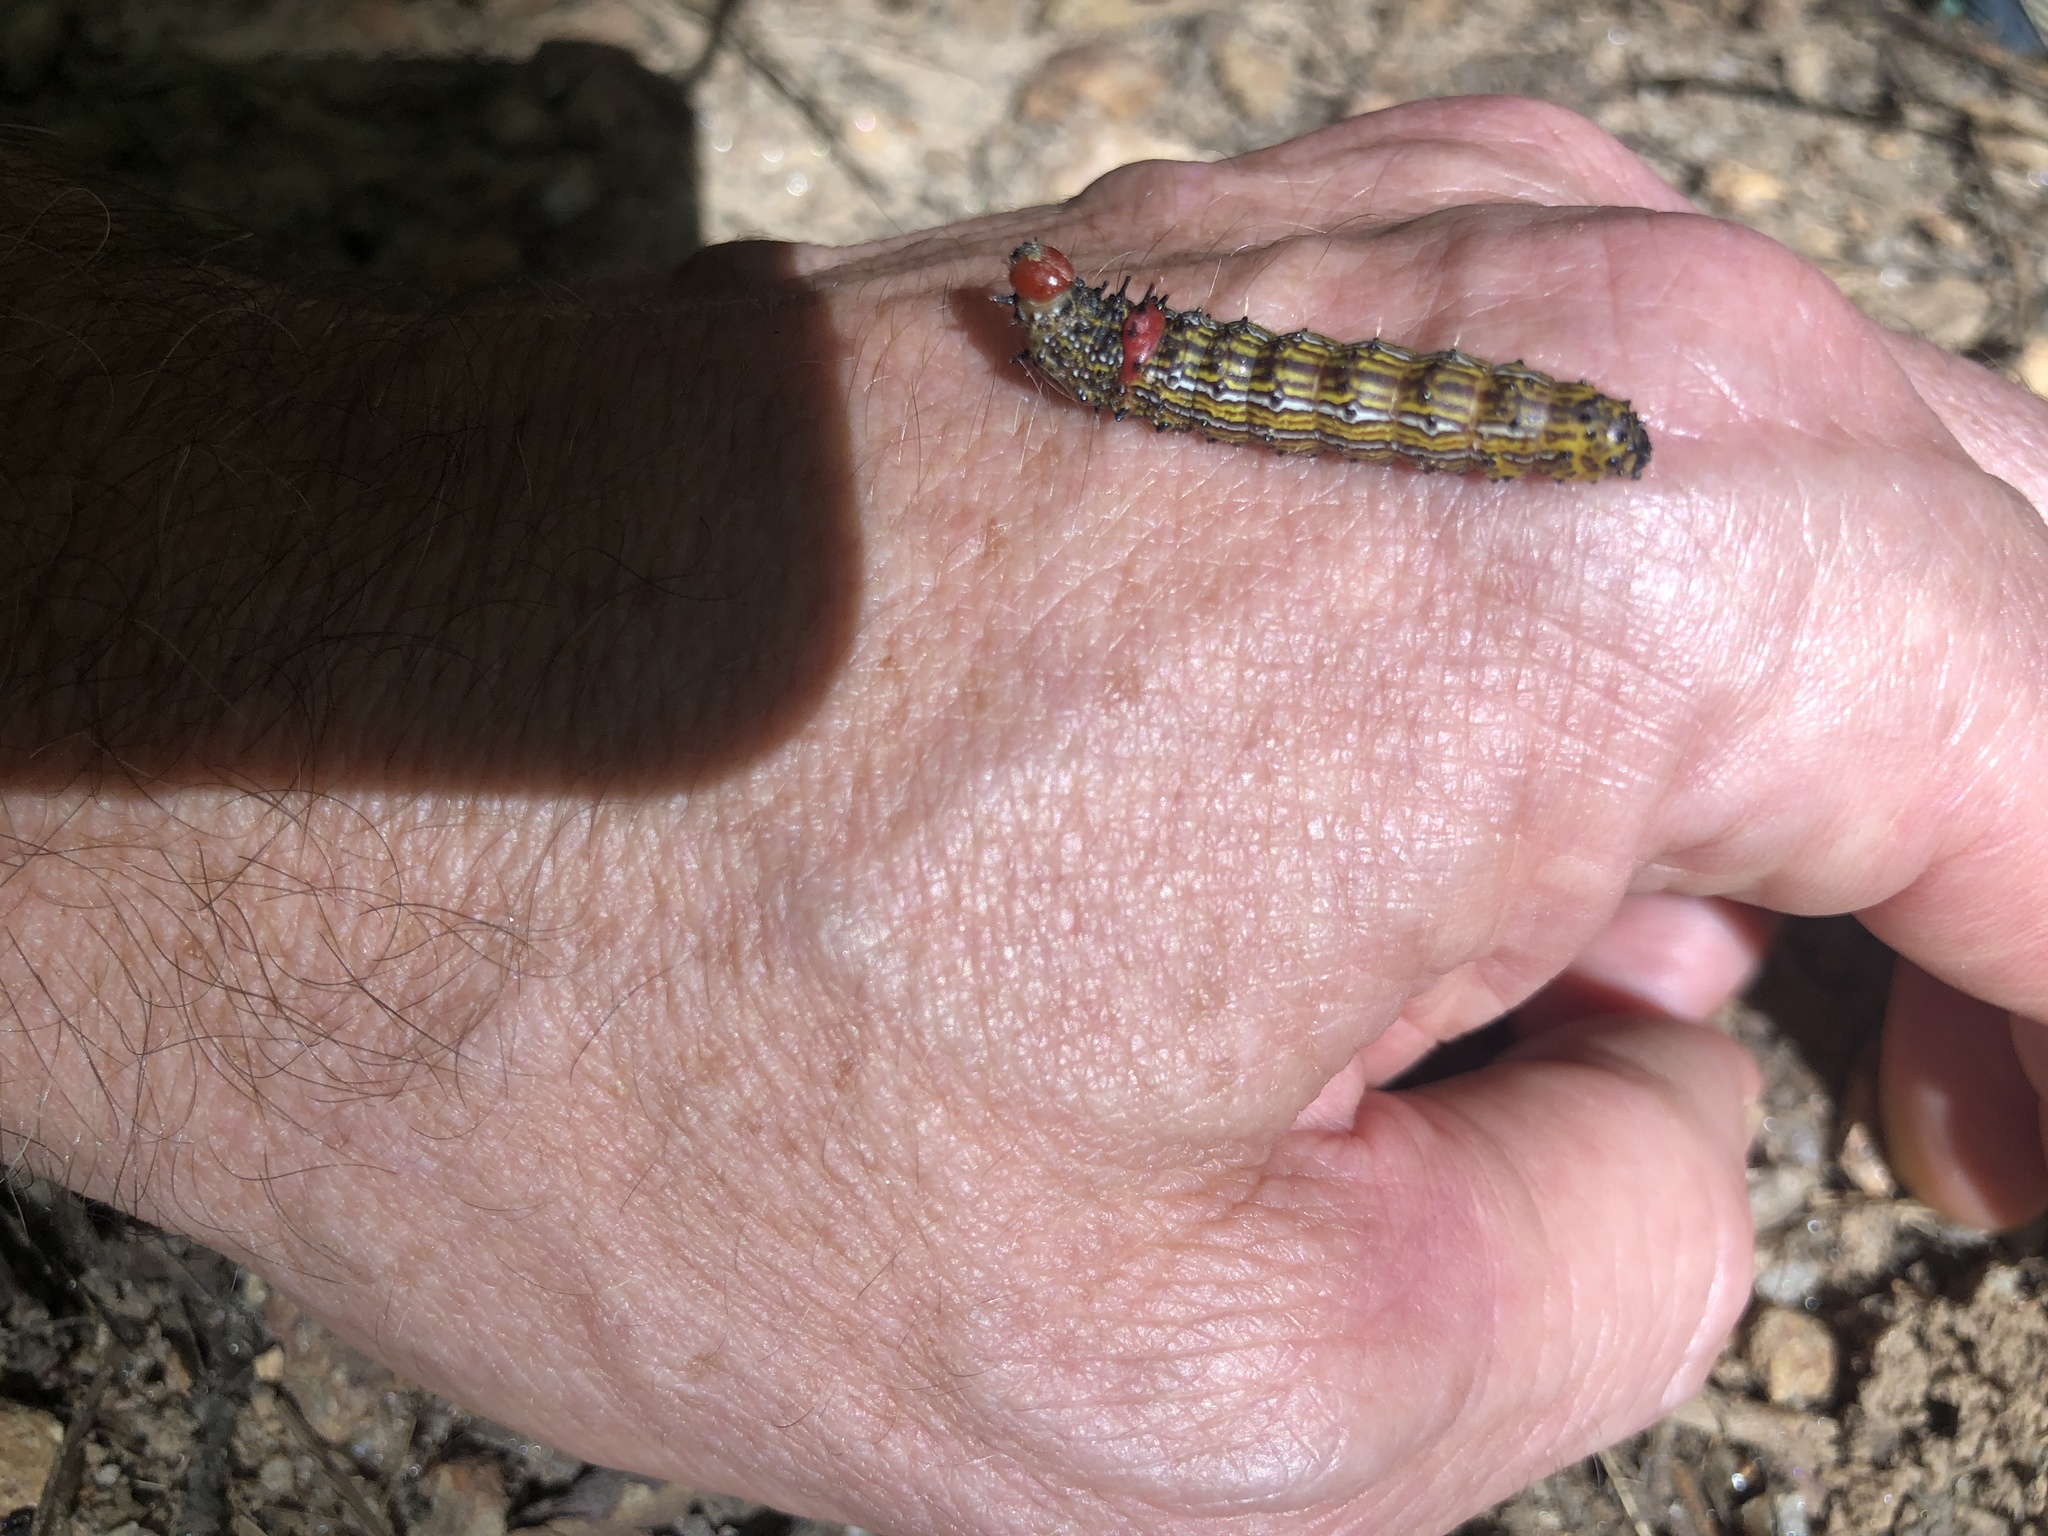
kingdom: Animalia
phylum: Arthropoda
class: Insecta
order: Lepidoptera
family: Notodontidae
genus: Schizura
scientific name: Schizura
